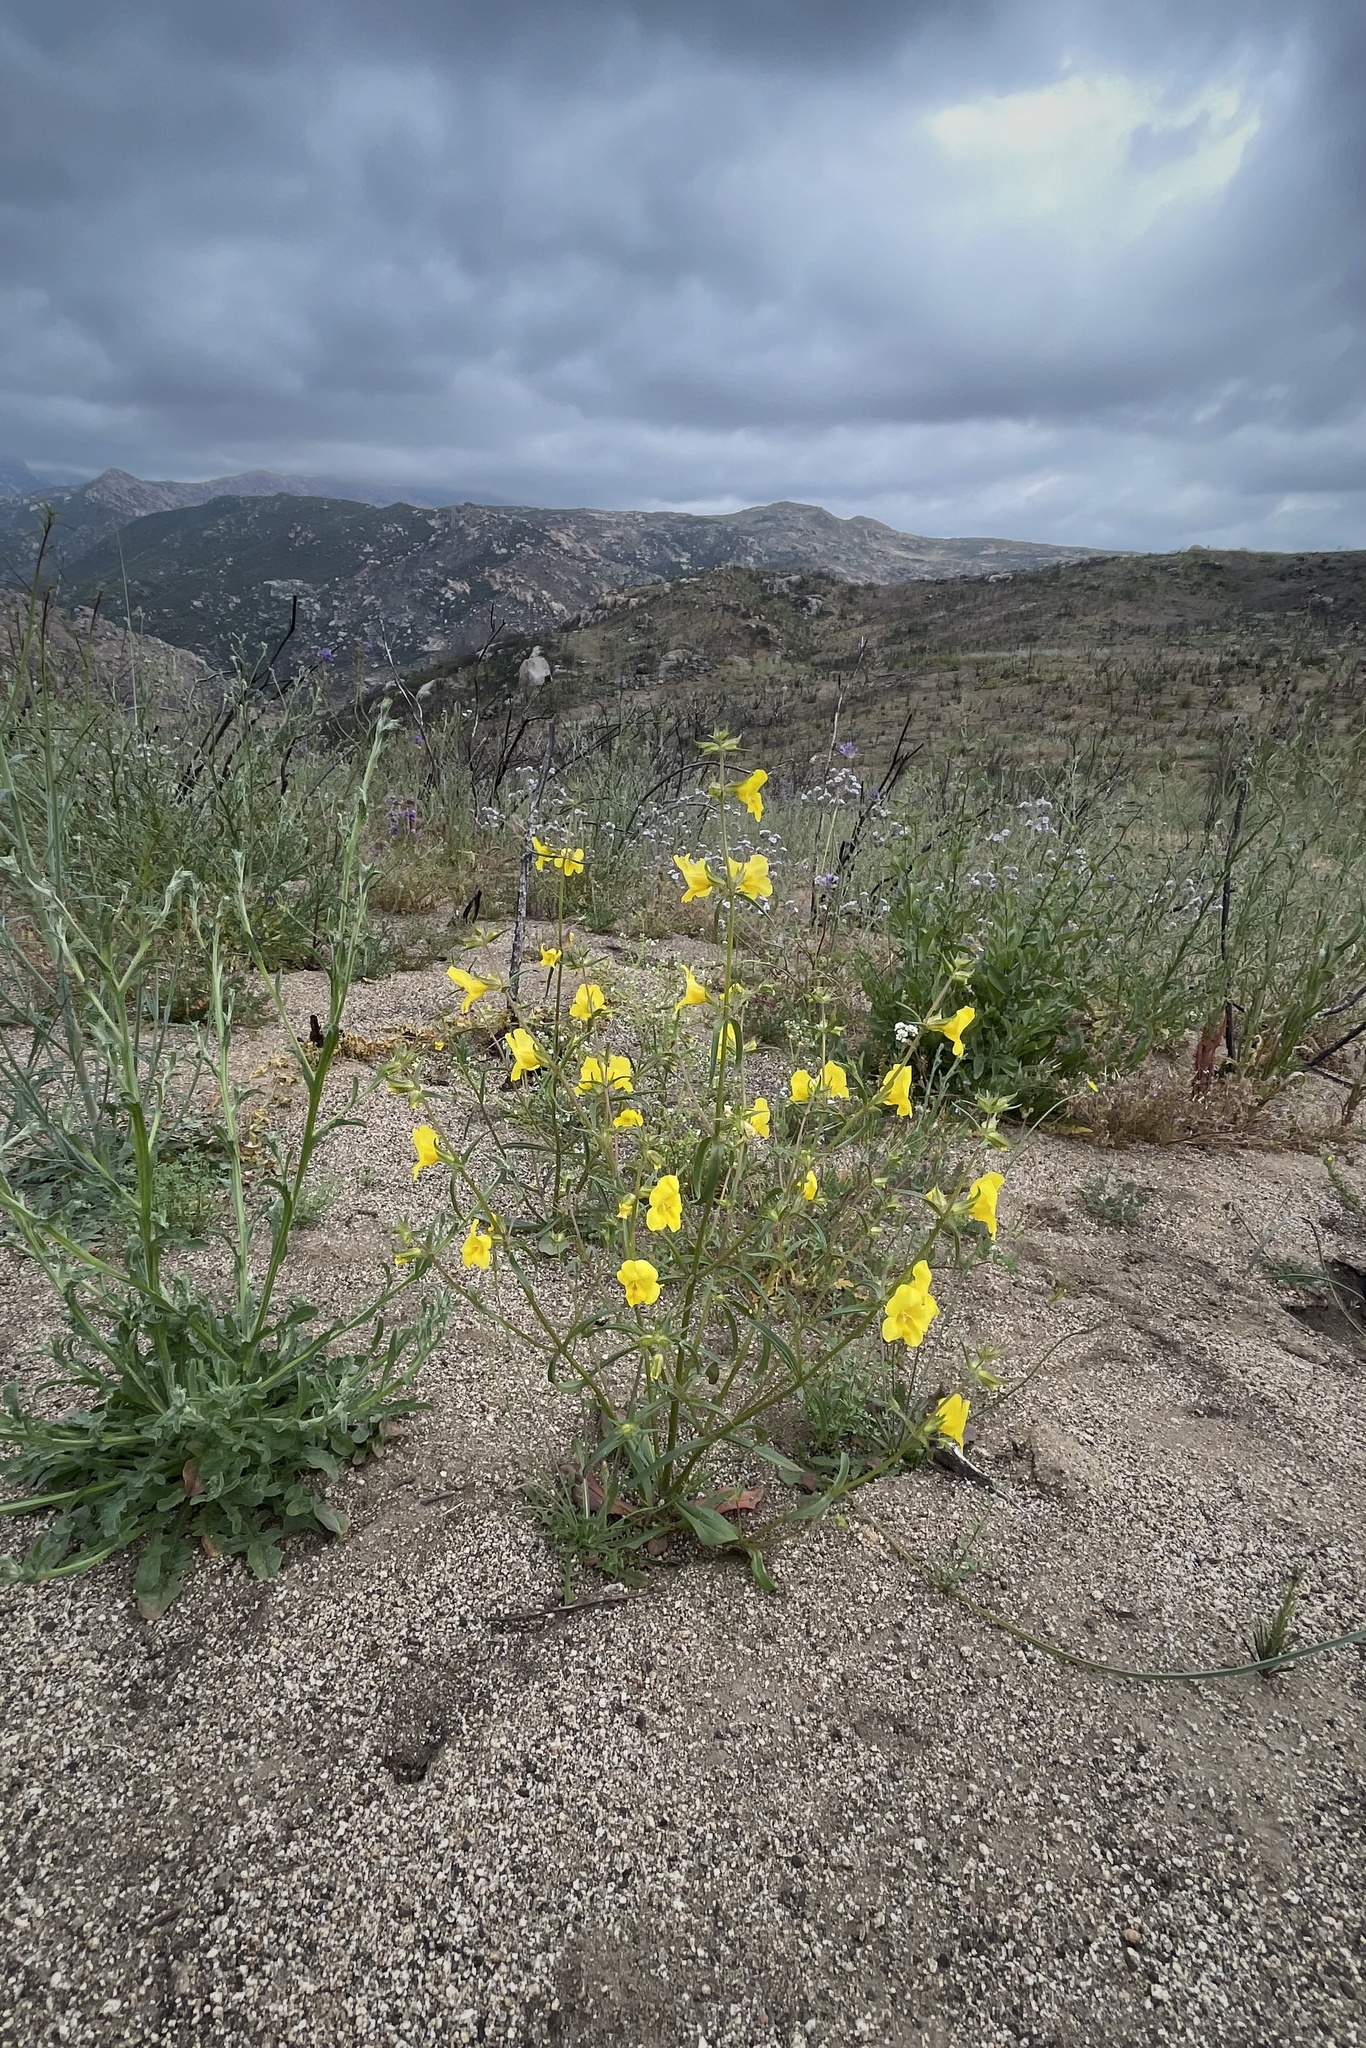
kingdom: Plantae
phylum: Tracheophyta
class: Magnoliopsida
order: Lamiales
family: Phrymaceae
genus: Diplacus
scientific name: Diplacus brevipes
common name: Wide-throat yellow monkey-flower
